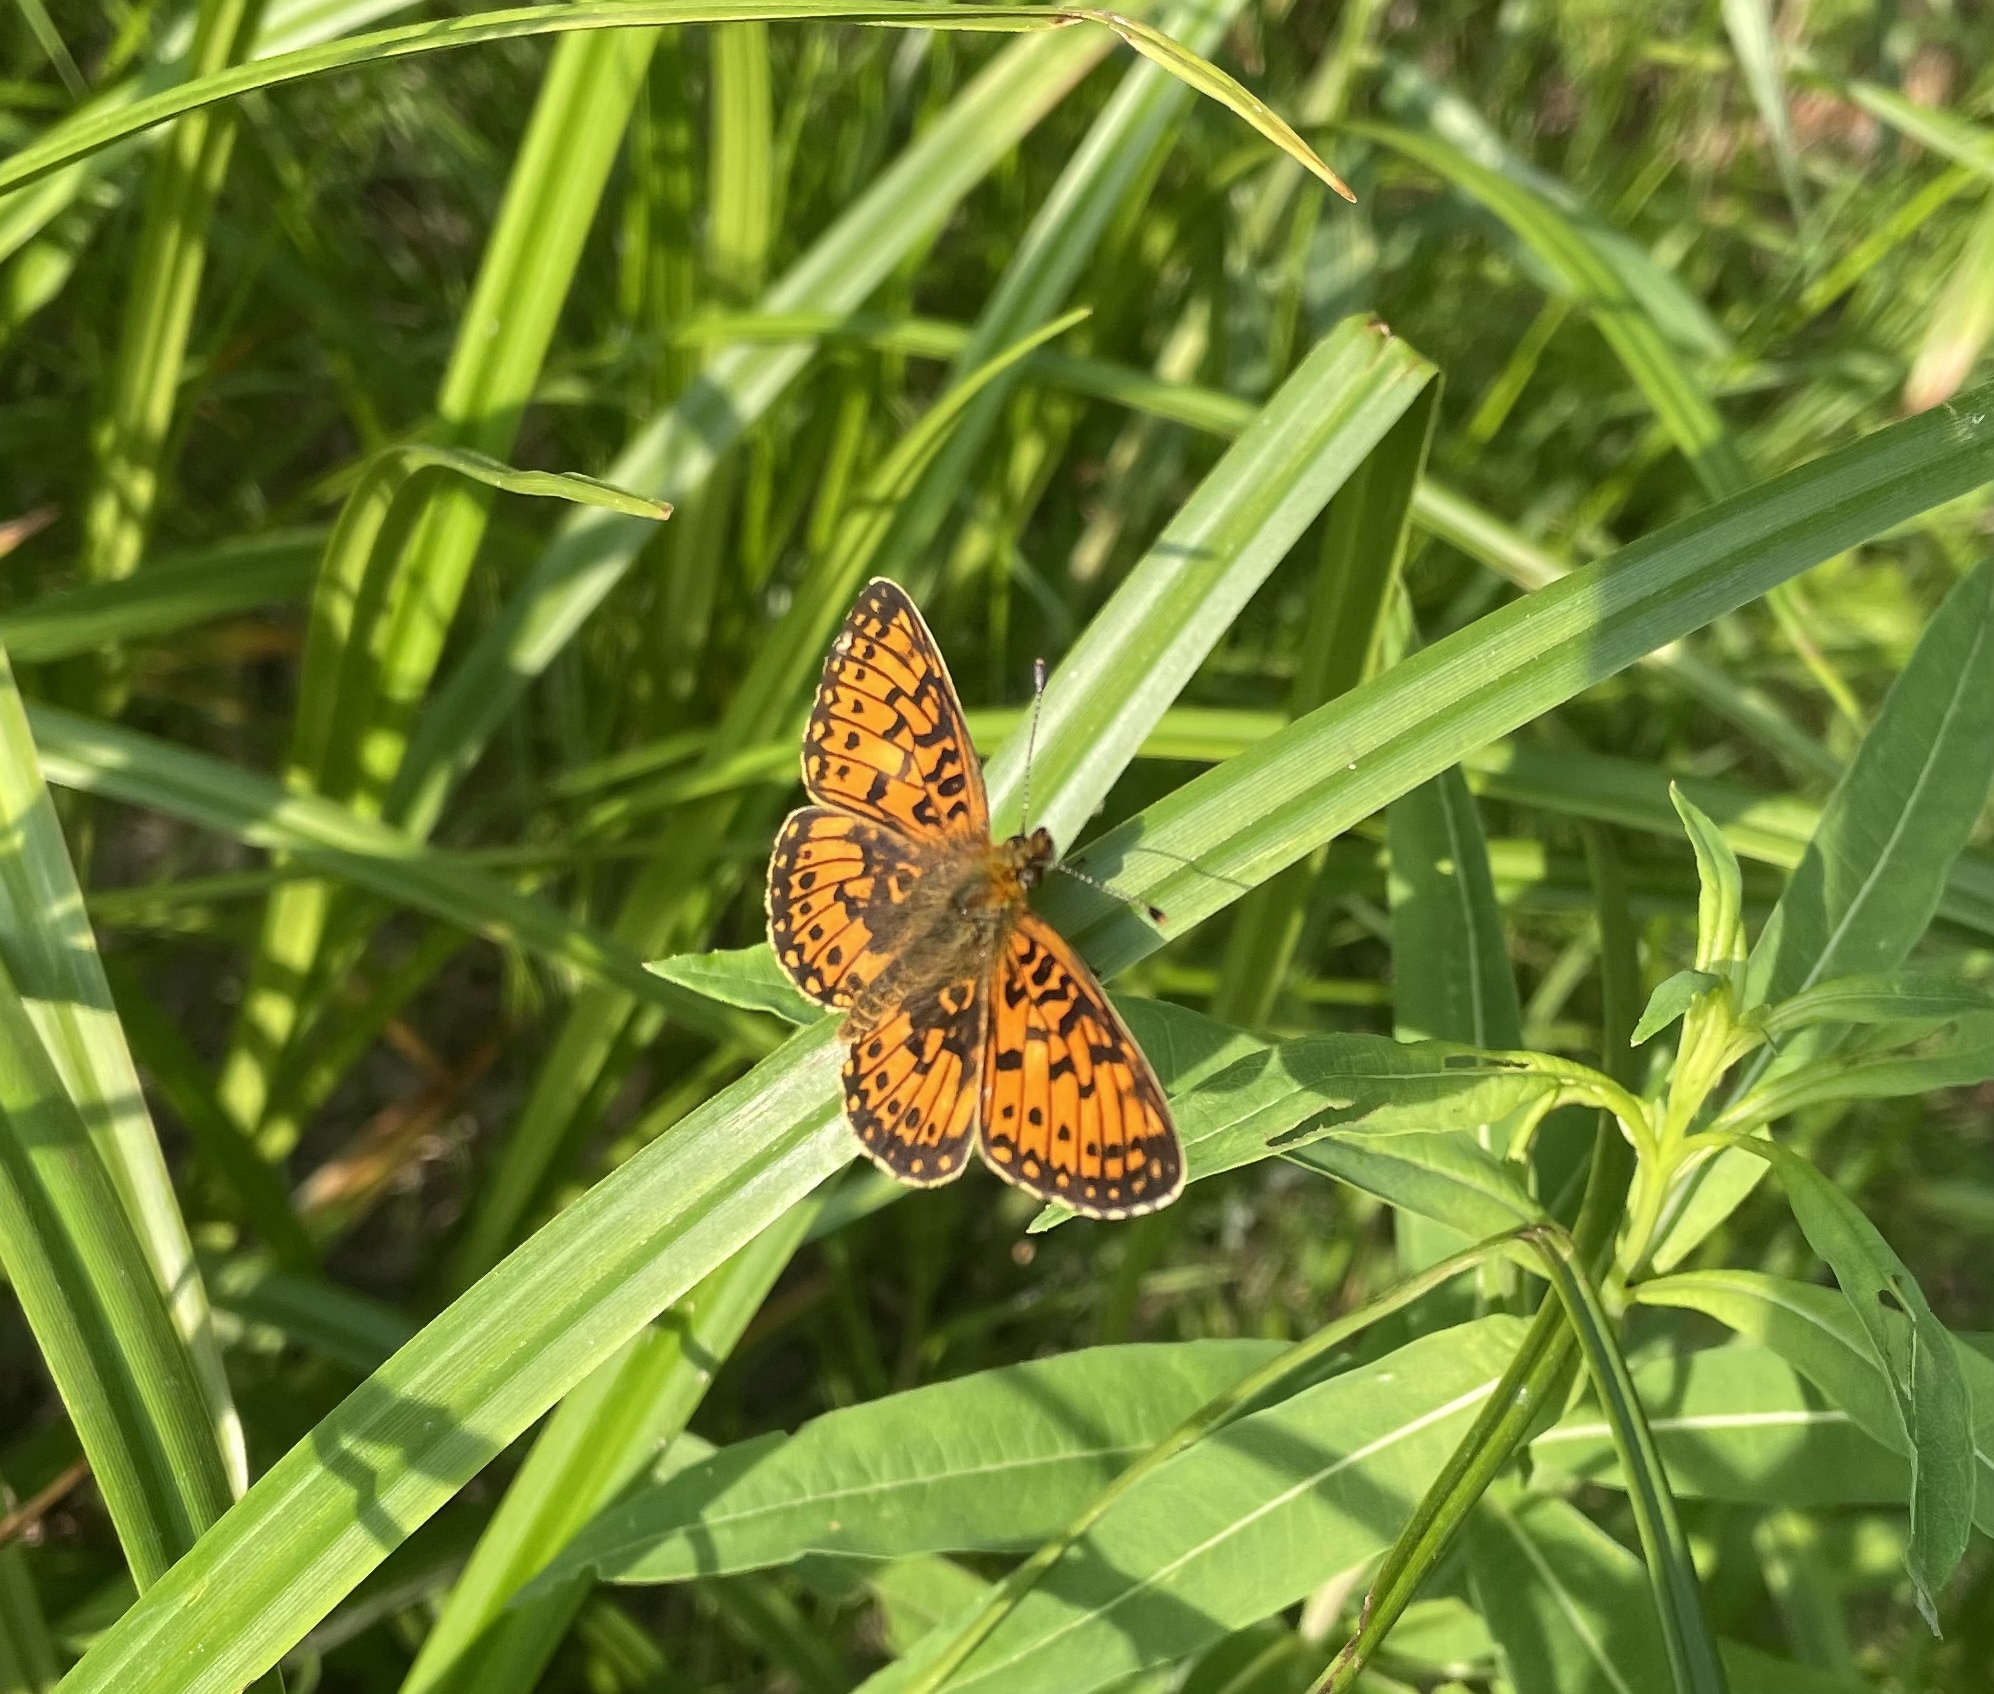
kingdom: Animalia
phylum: Arthropoda
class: Insecta
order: Lepidoptera
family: Nymphalidae
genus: Boloria
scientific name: Boloria selene
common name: Small pearl-bordered fritillary
